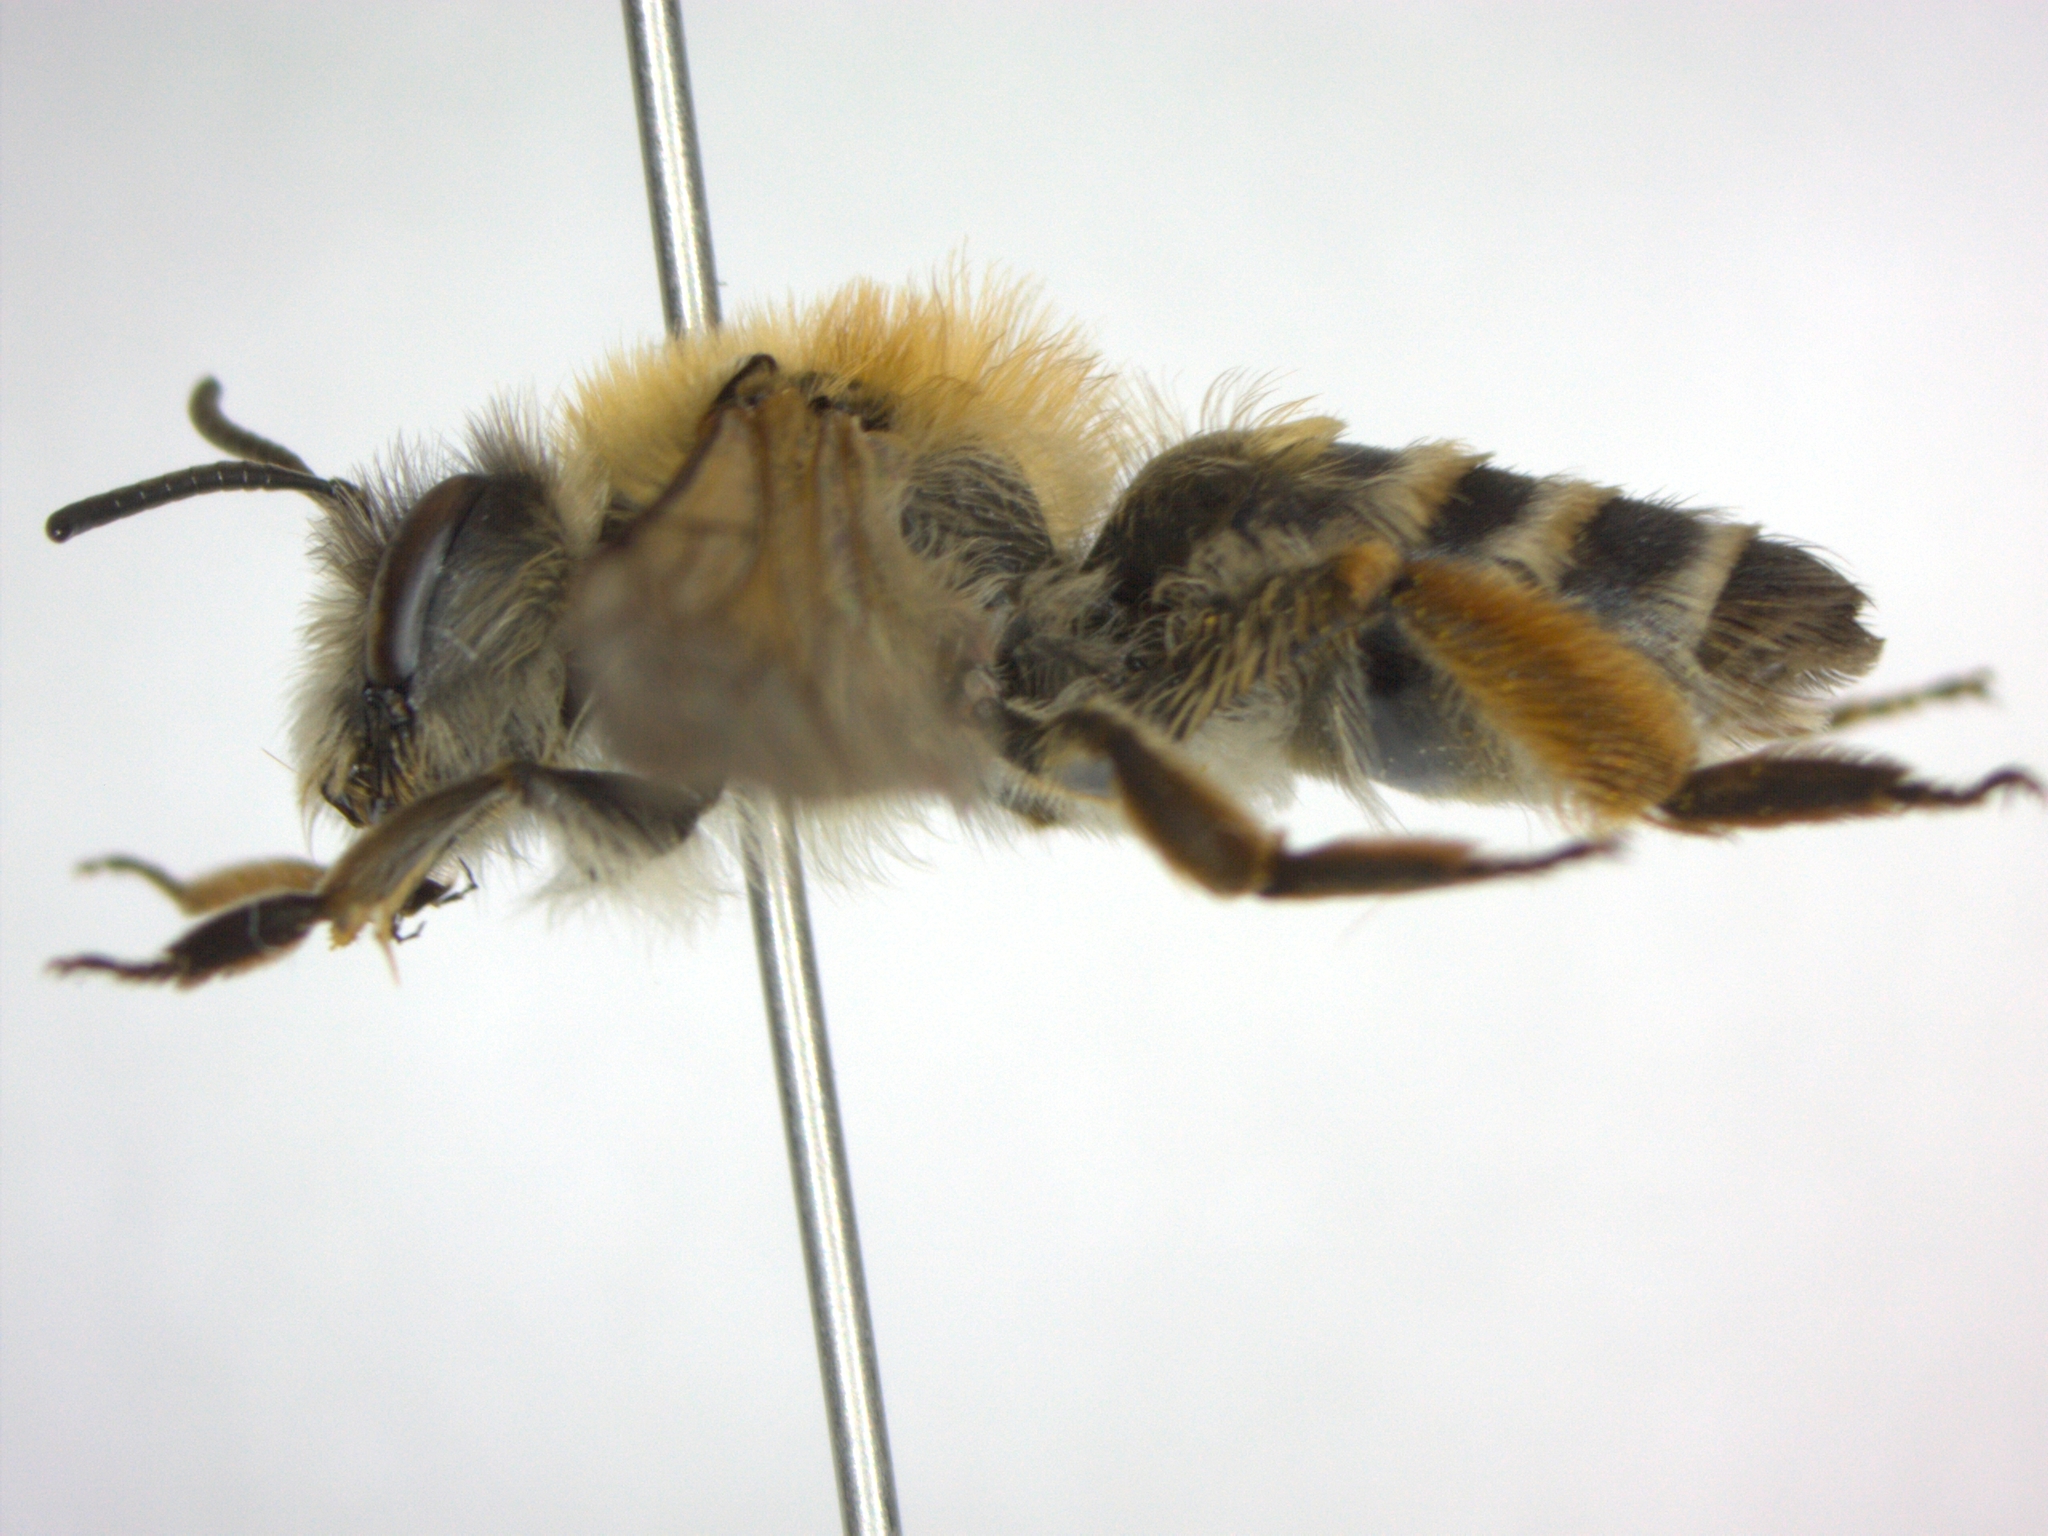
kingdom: Animalia
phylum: Arthropoda
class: Insecta
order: Hymenoptera
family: Andrenidae
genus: Andrena
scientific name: Andrena gravida
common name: White-bellied mining bee
